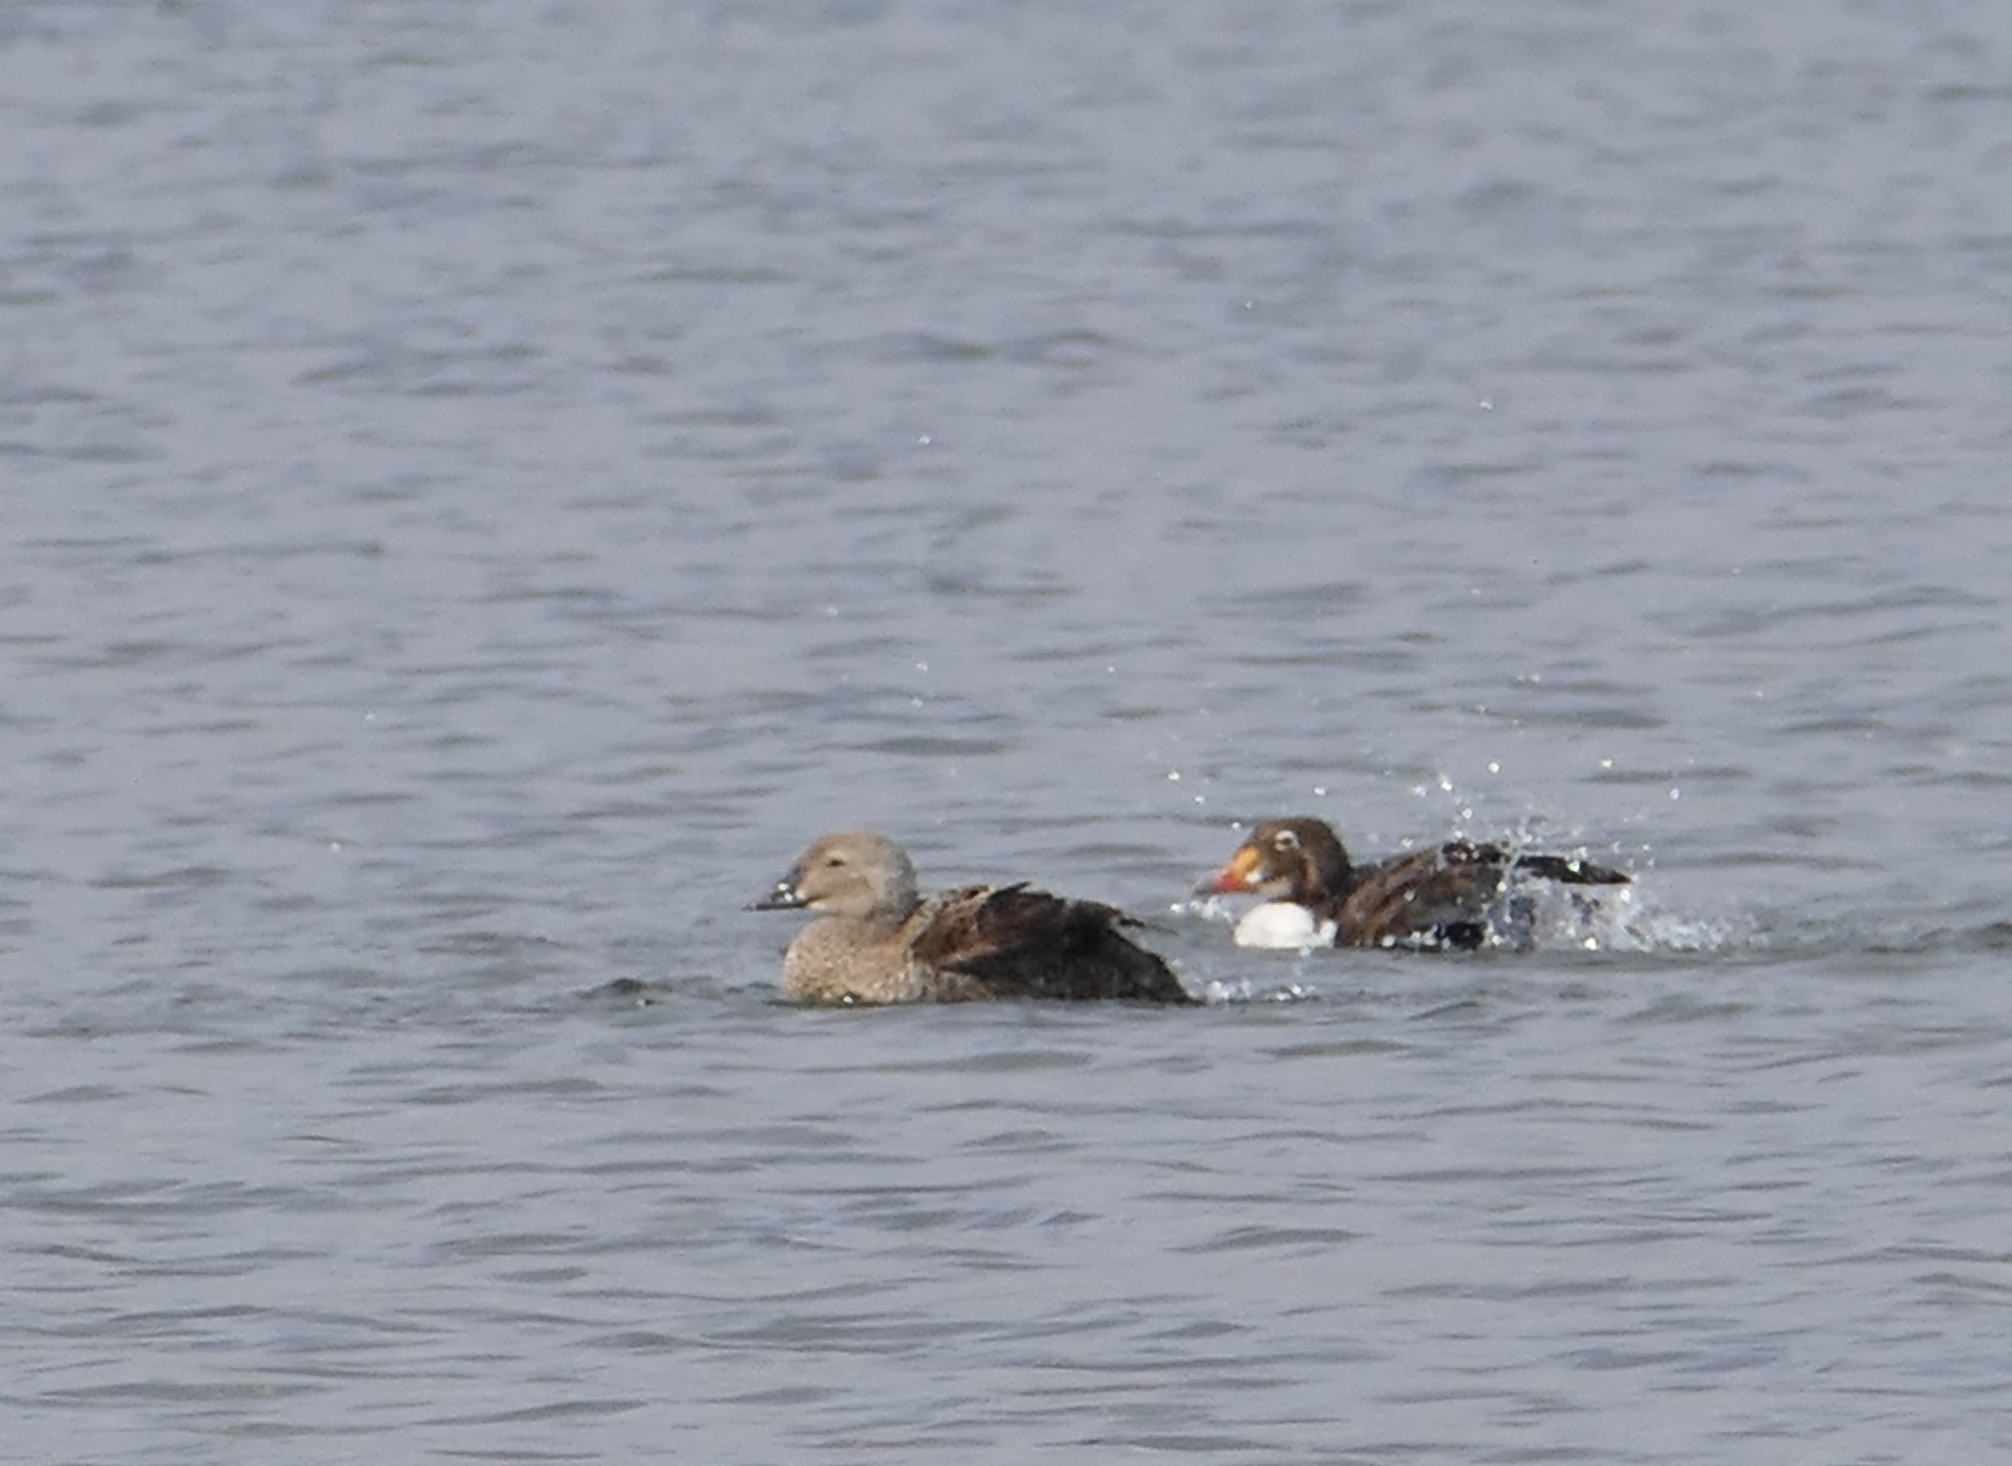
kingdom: Animalia
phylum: Chordata
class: Aves
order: Anseriformes
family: Anatidae
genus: Somateria
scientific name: Somateria spectabilis
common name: King eider
